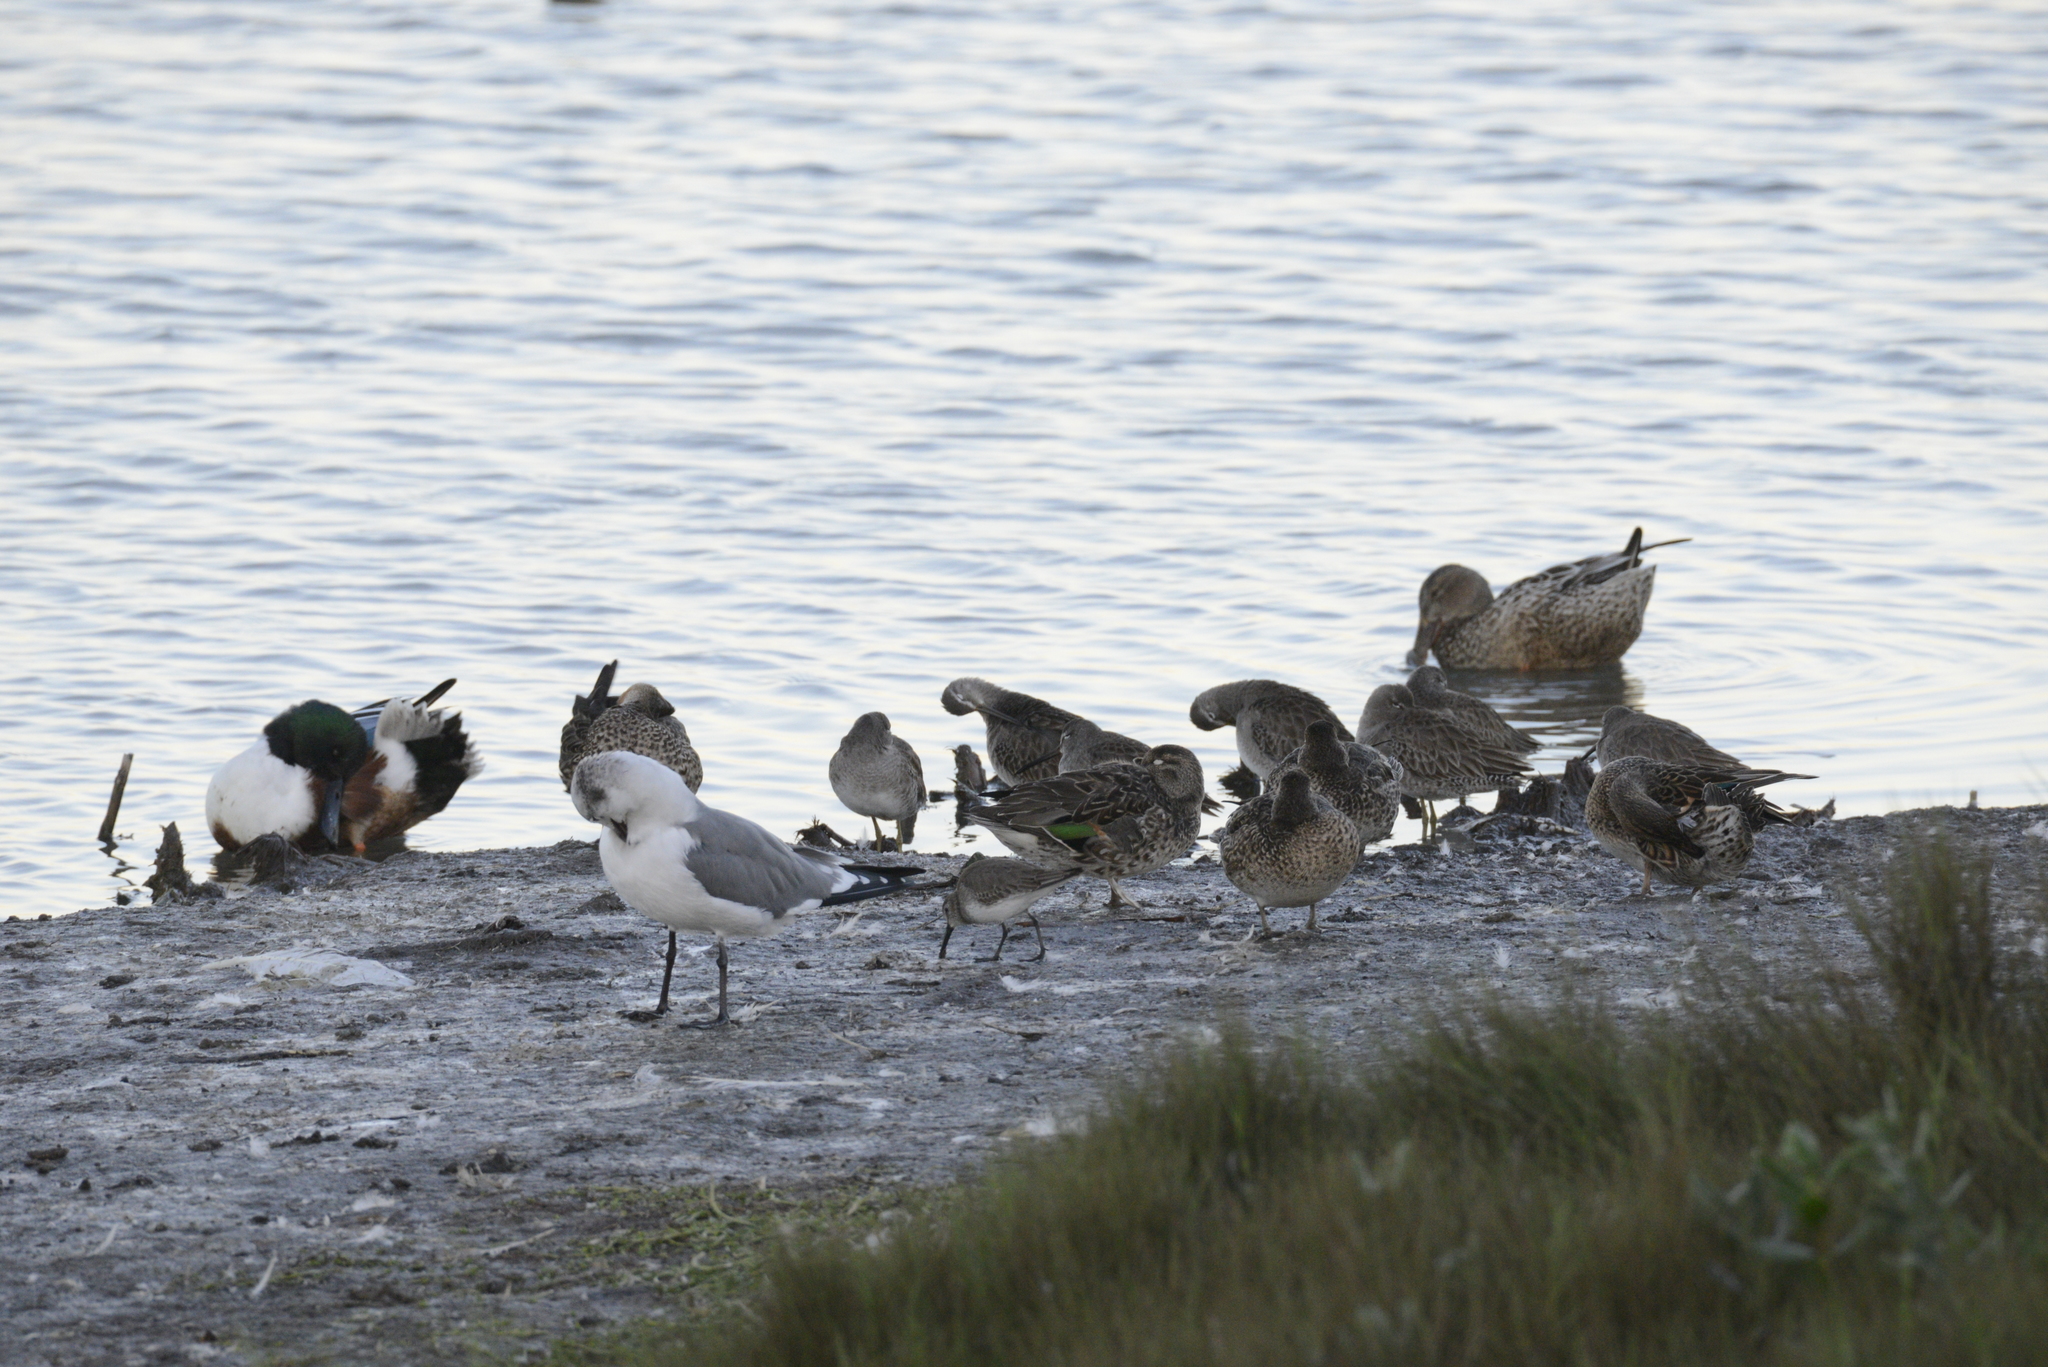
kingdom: Animalia
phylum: Chordata
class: Aves
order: Charadriiformes
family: Scolopacidae
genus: Calidris
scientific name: Calidris alpina
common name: Dunlin
